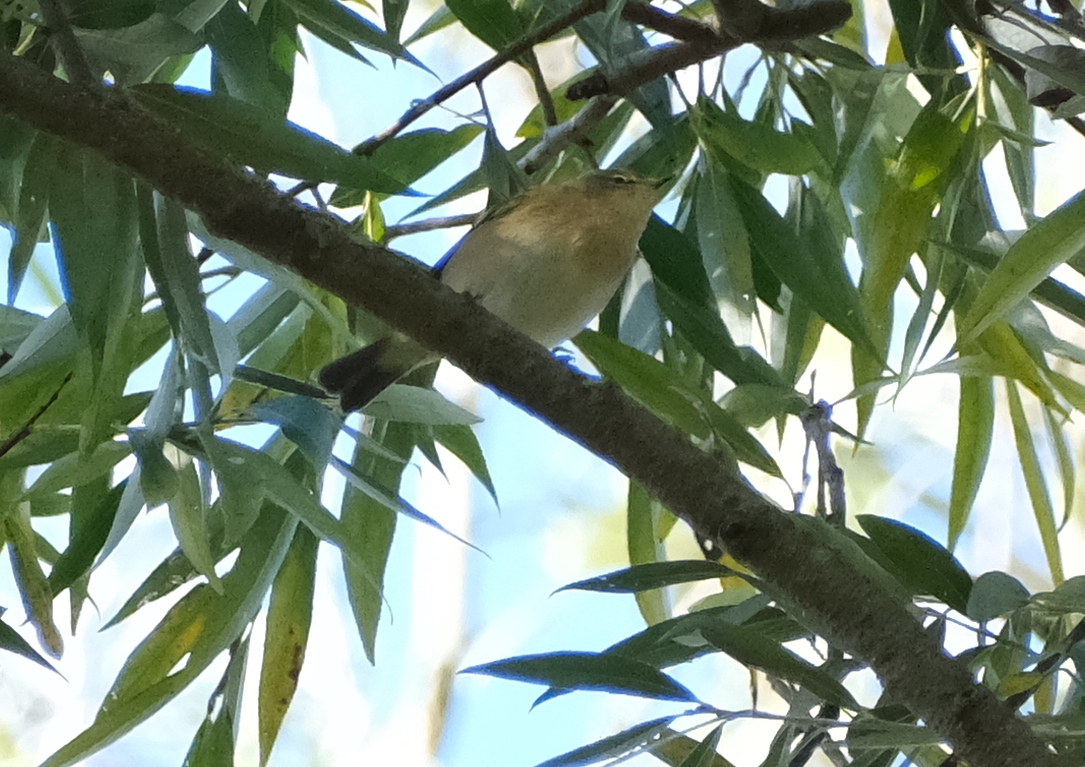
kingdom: Animalia
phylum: Chordata
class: Aves
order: Passeriformes
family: Phylloscopidae
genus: Phylloscopus
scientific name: Phylloscopus collybita
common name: Common chiffchaff
